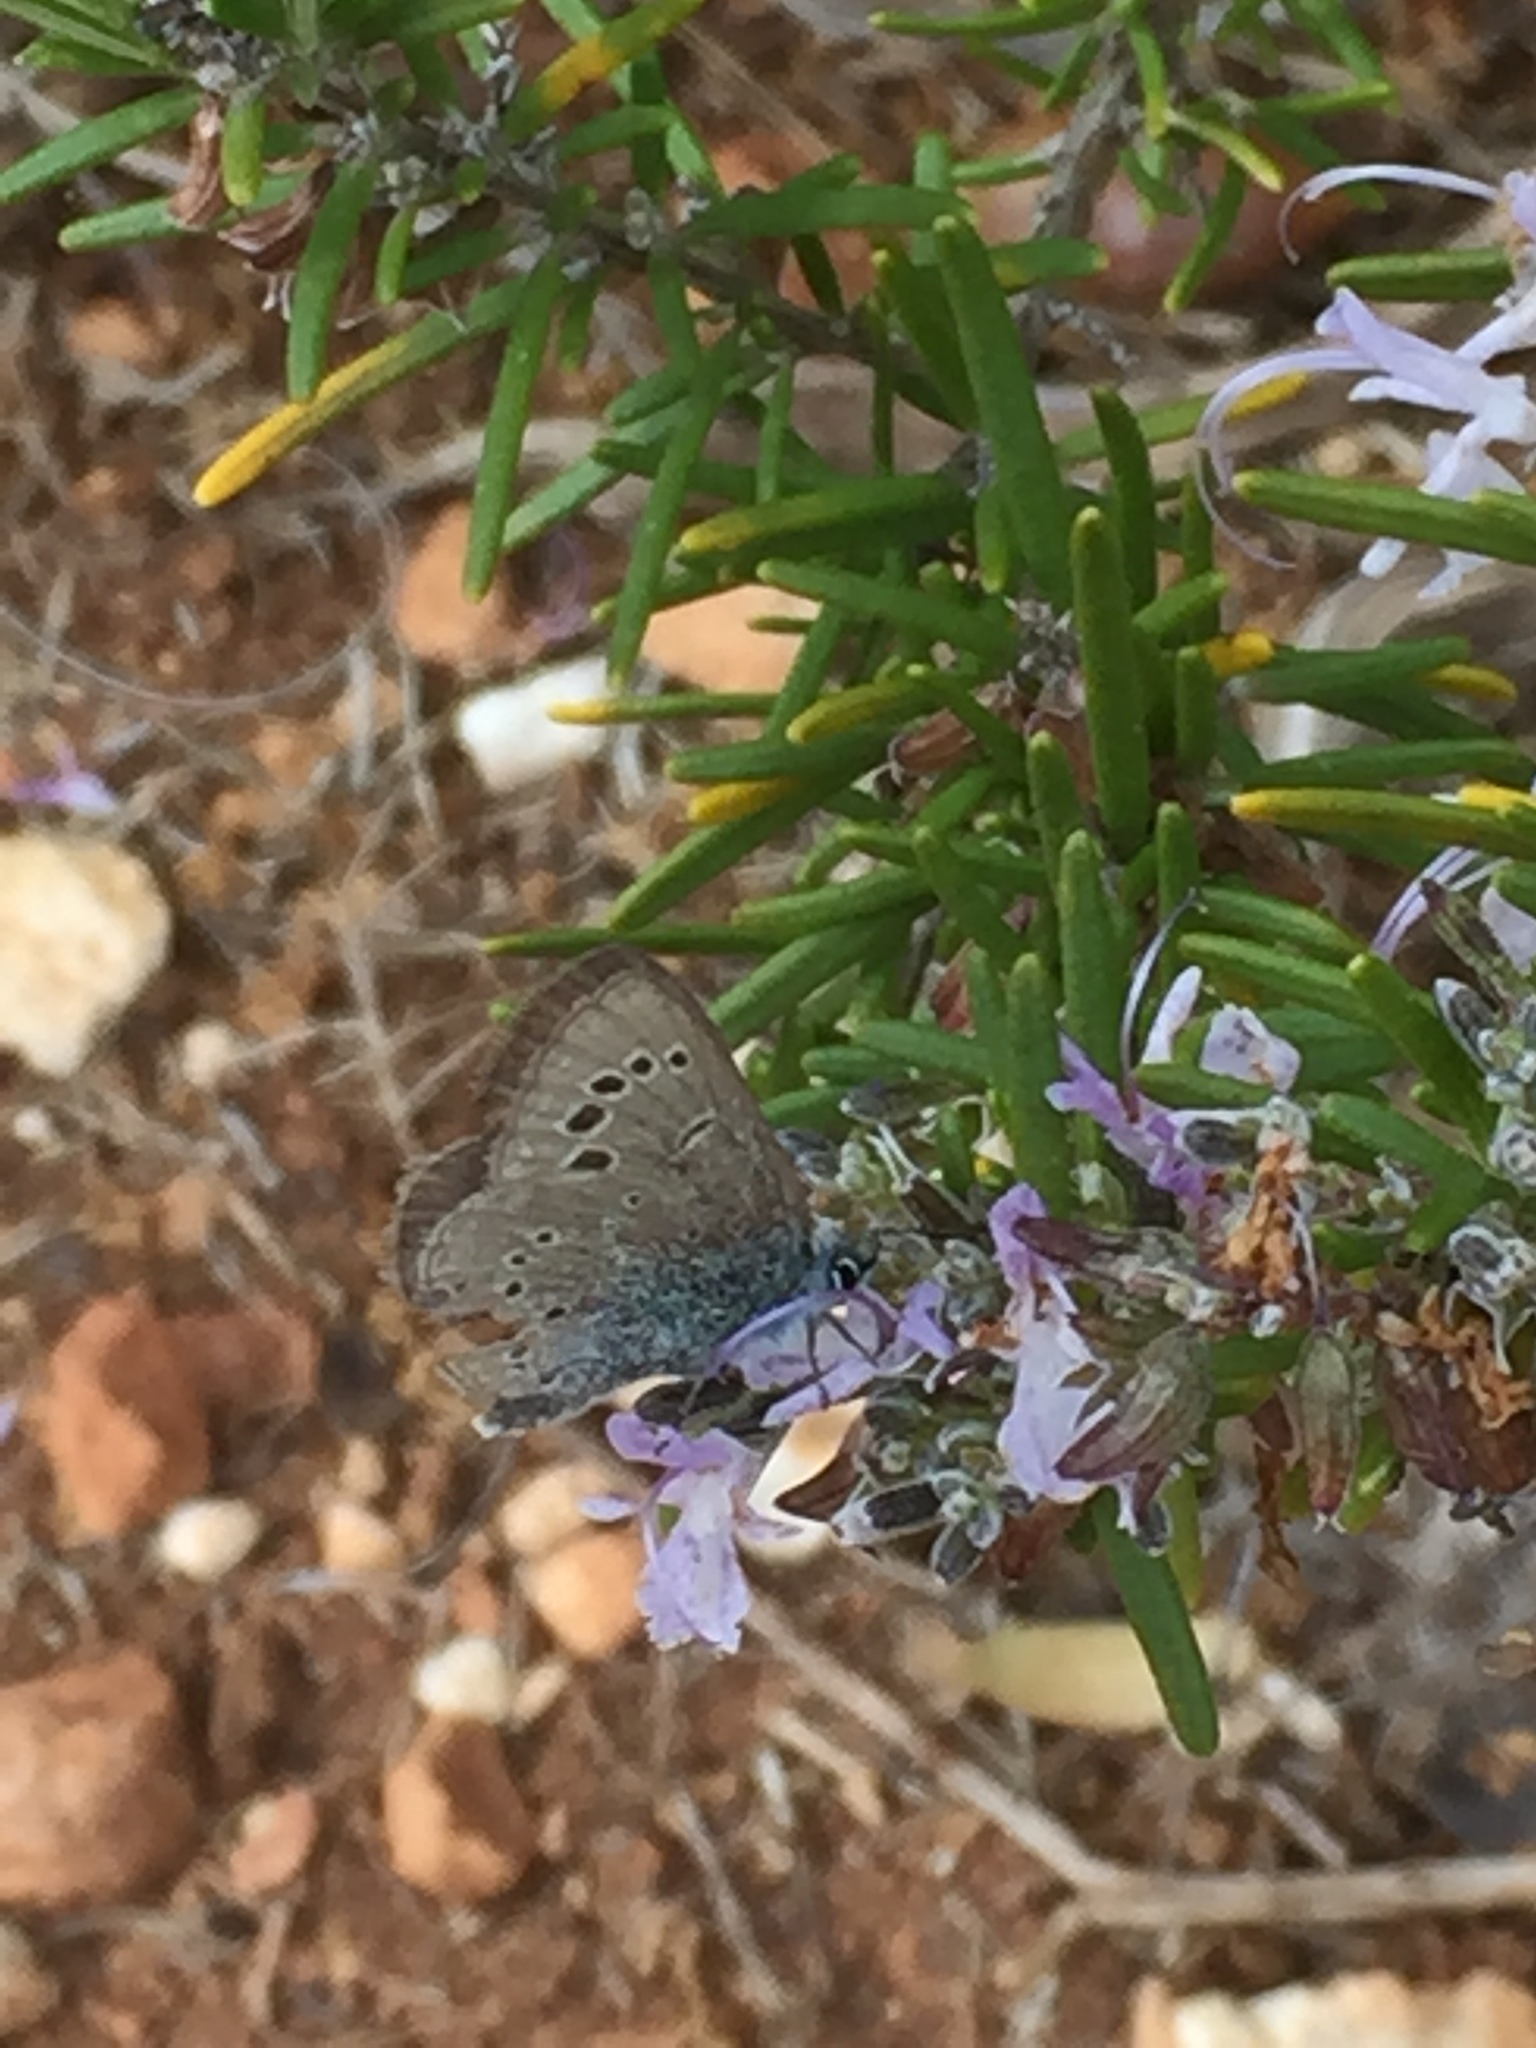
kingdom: Plantae
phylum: Tracheophyta
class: Magnoliopsida
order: Lamiales
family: Lamiaceae
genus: Salvia
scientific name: Salvia rosmarinus
